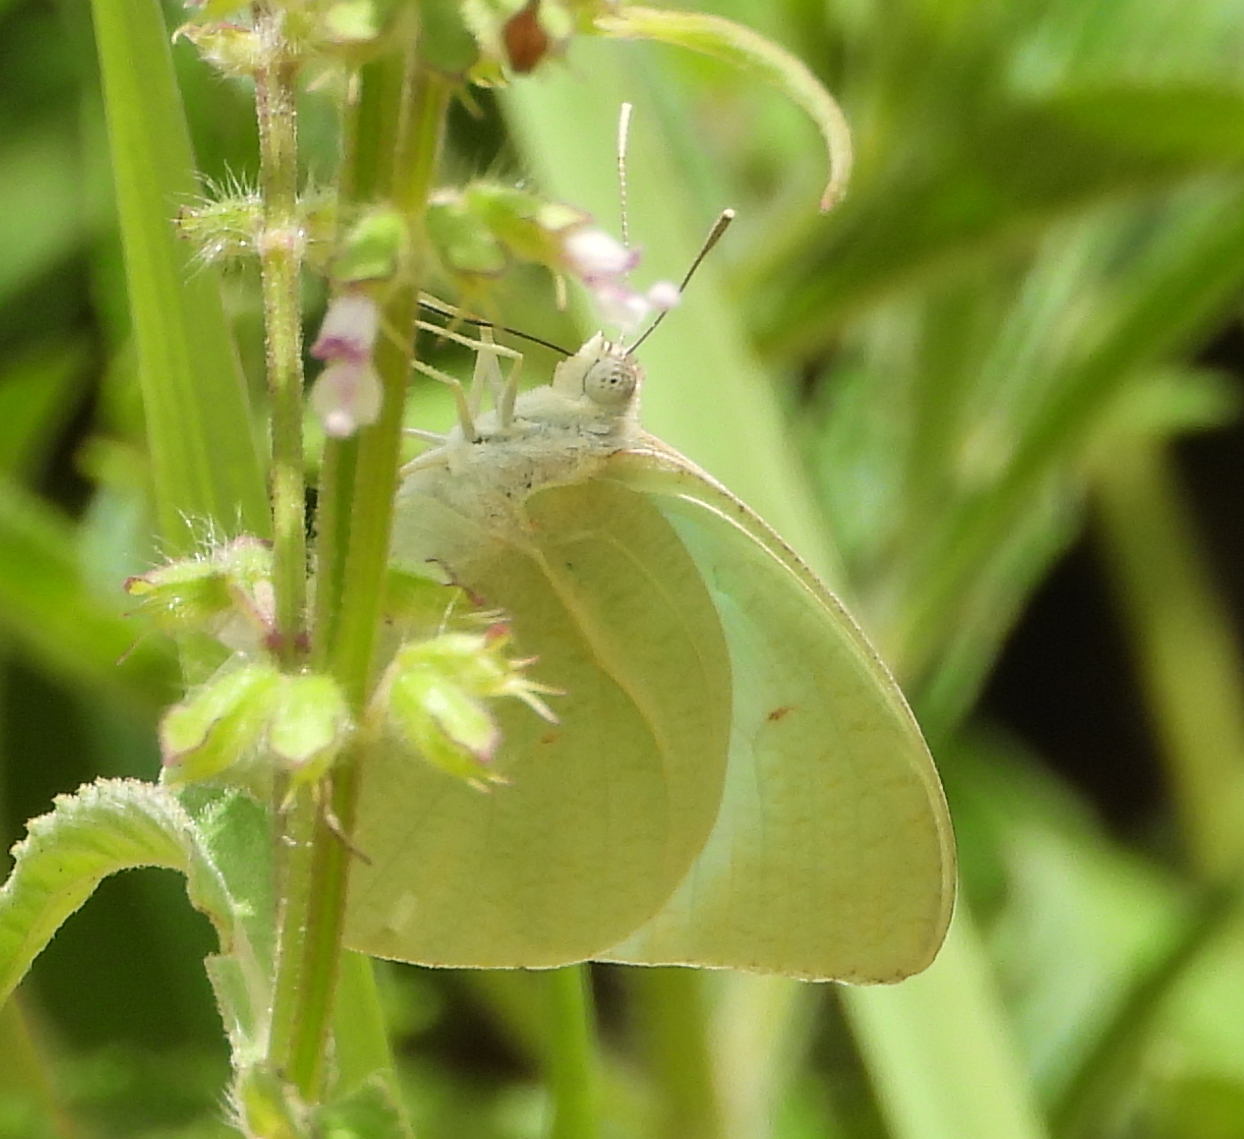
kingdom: Animalia
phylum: Arthropoda
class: Insecta
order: Lepidoptera
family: Pieridae
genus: Catopsilia
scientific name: Catopsilia florella
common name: African migrant
